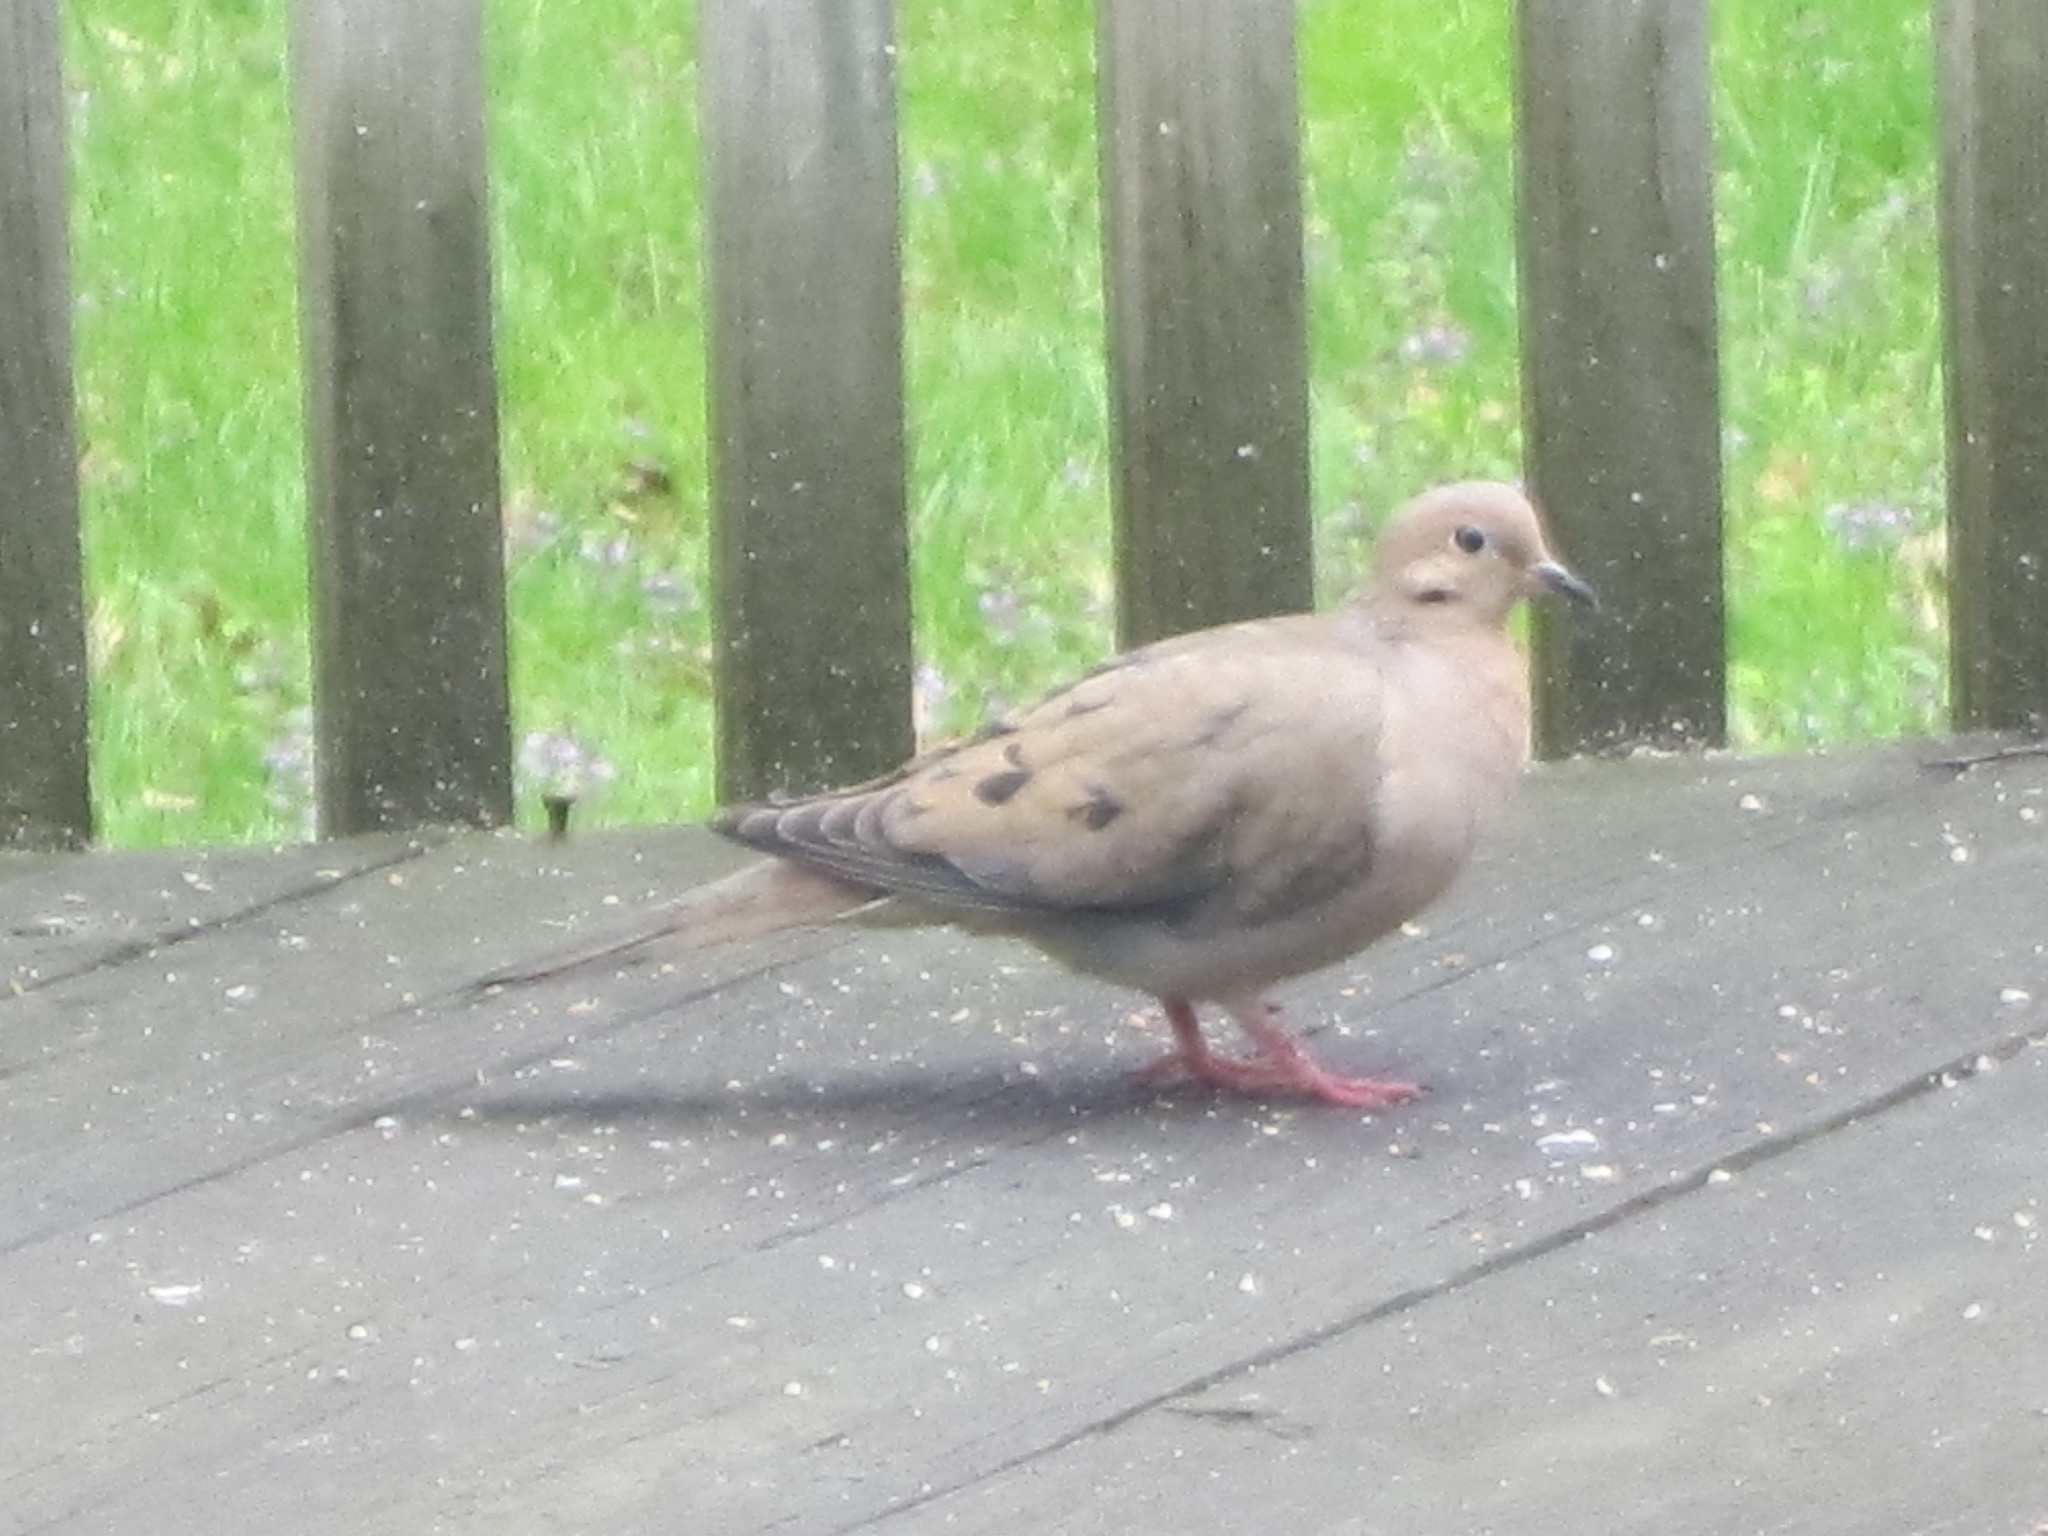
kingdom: Animalia
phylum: Chordata
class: Aves
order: Columbiformes
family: Columbidae
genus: Zenaida
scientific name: Zenaida macroura
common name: Mourning dove
